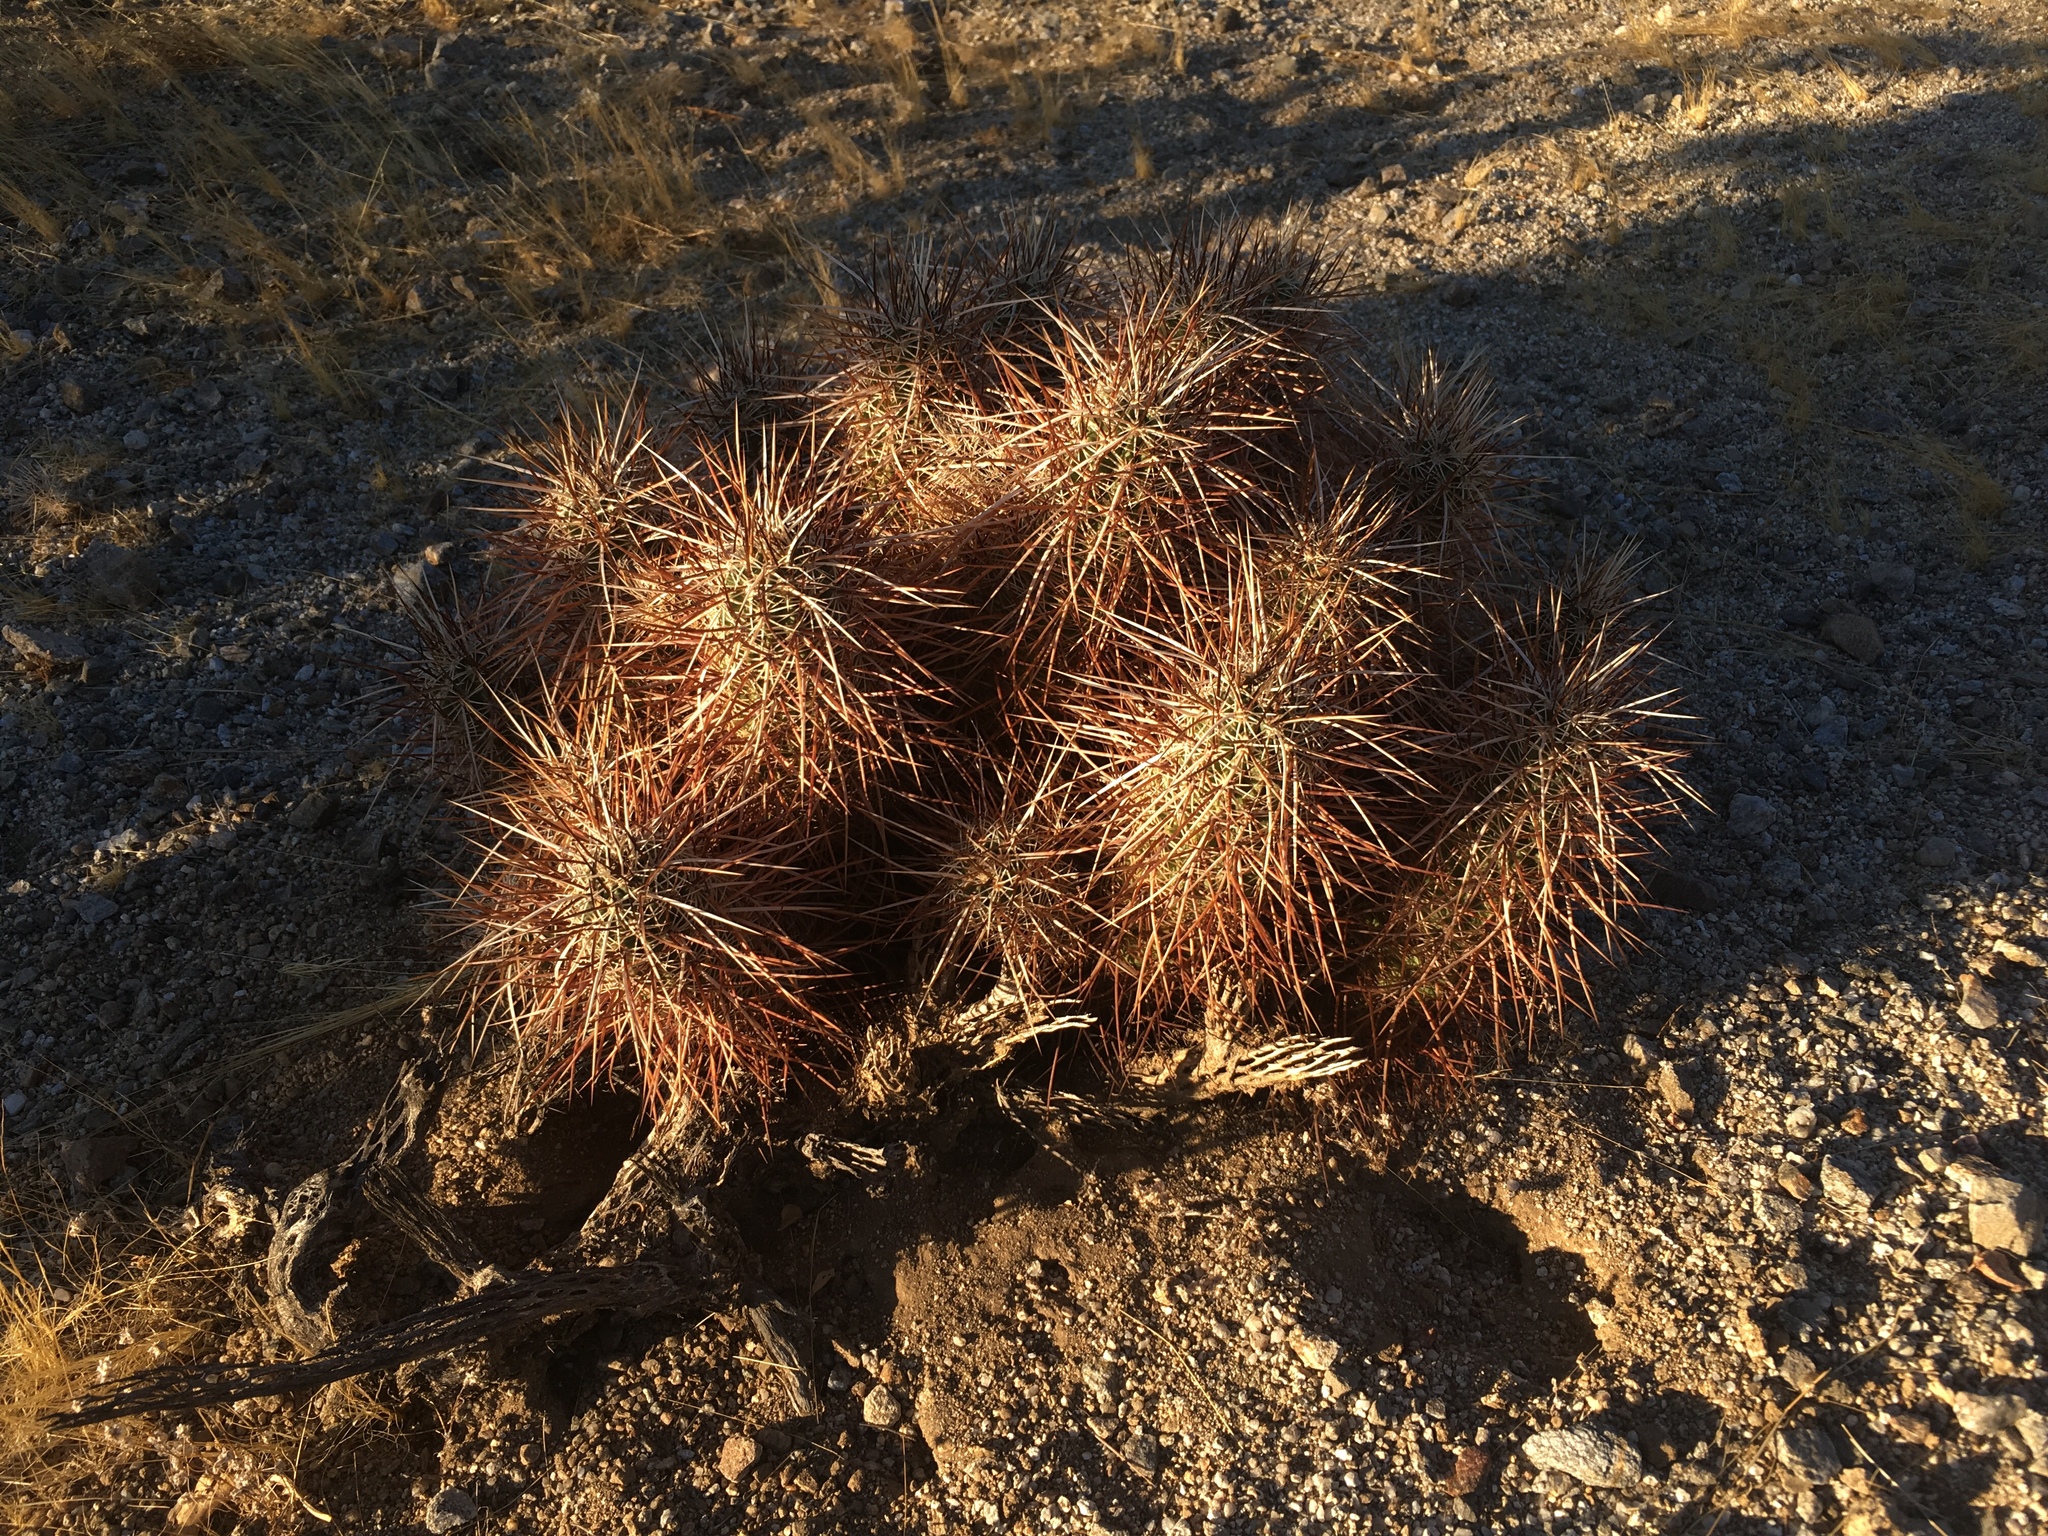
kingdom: Plantae
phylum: Tracheophyta
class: Magnoliopsida
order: Caryophyllales
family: Cactaceae
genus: Echinocereus
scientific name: Echinocereus engelmannii
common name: Engelmann's hedgehog cactus
